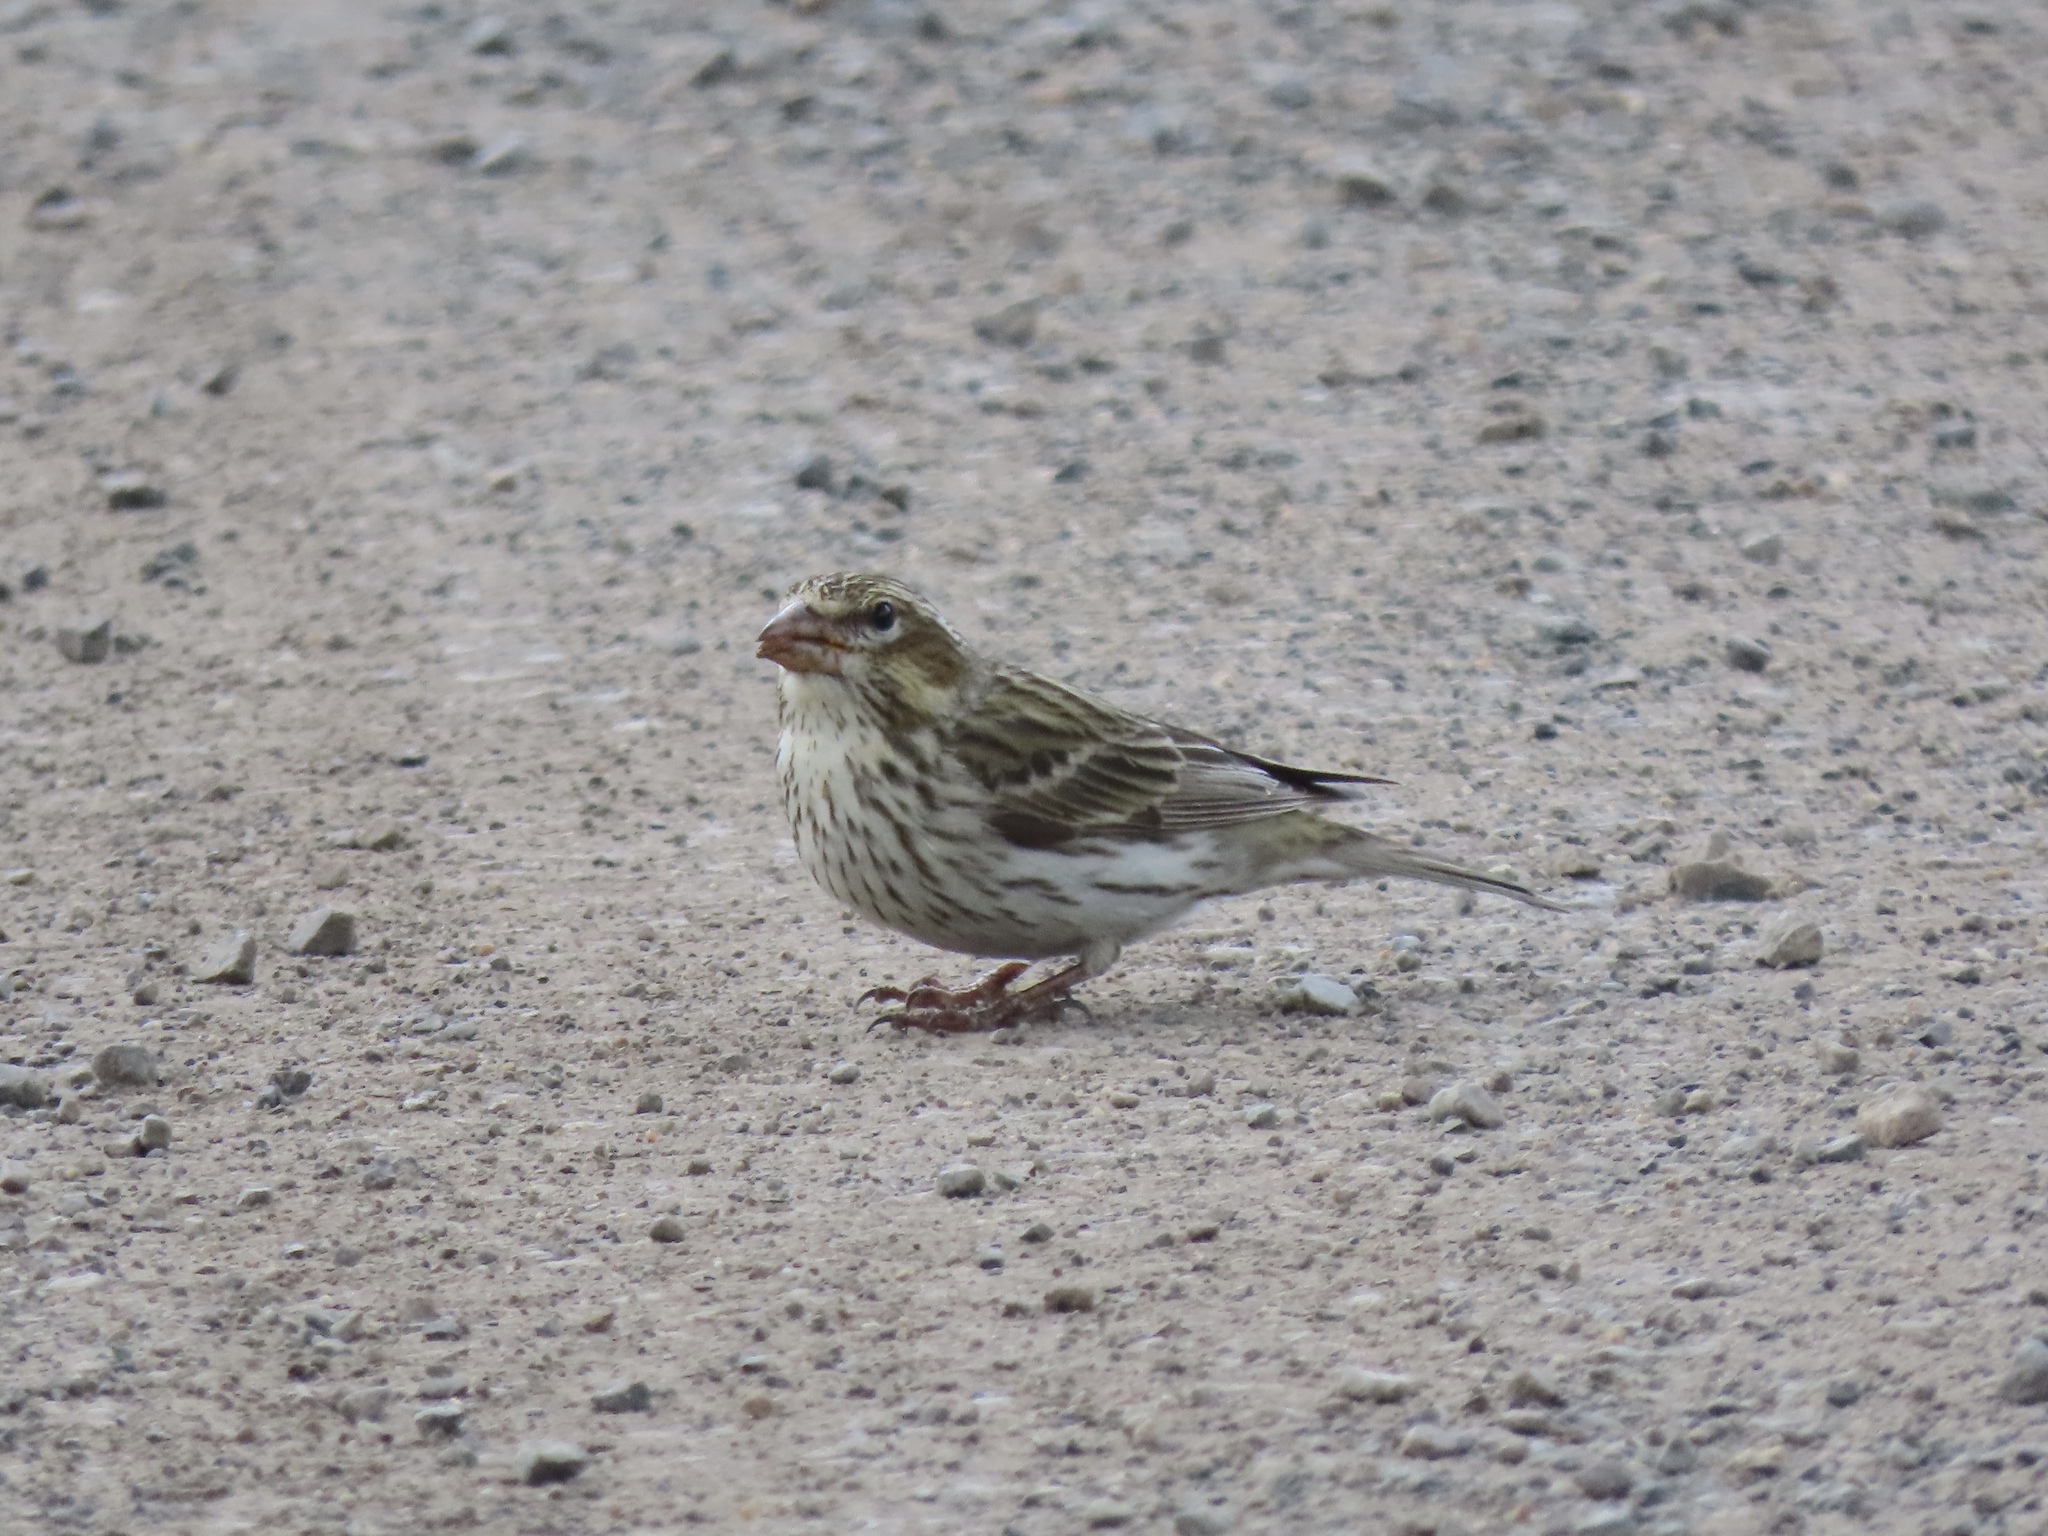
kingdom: Animalia
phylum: Chordata
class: Aves
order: Passeriformes
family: Fringillidae
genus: Haemorhous
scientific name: Haemorhous cassinii
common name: Cassin's finch
